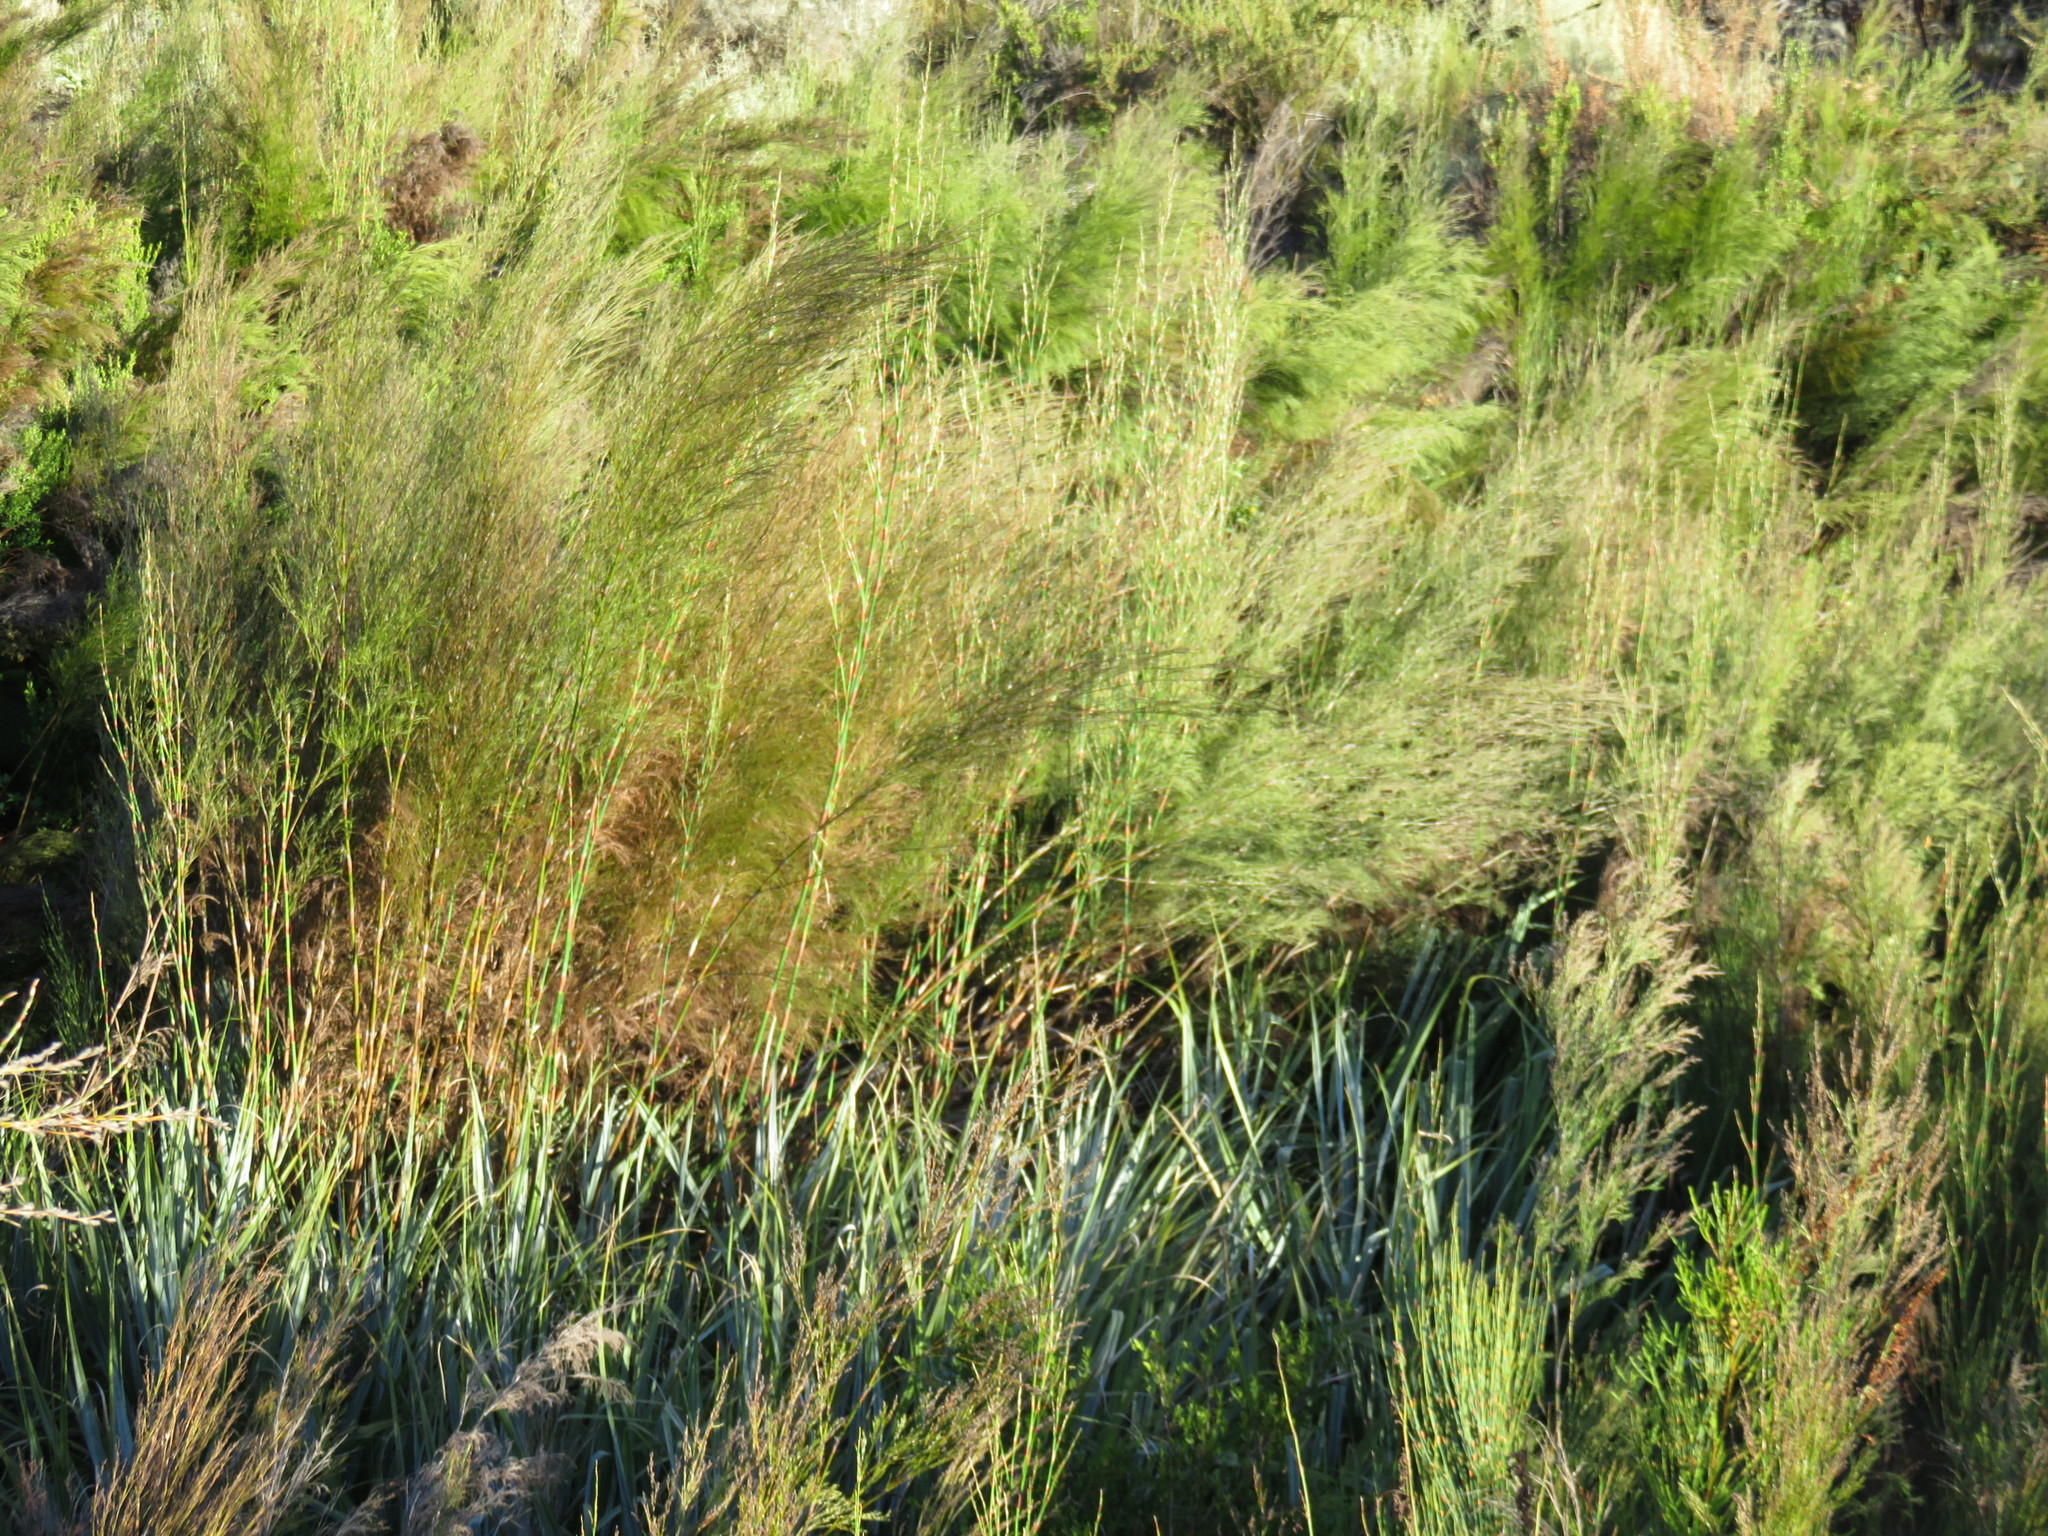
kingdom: Plantae
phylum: Tracheophyta
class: Liliopsida
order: Poales
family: Restionaceae
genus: Restio
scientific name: Restio paniculatus
